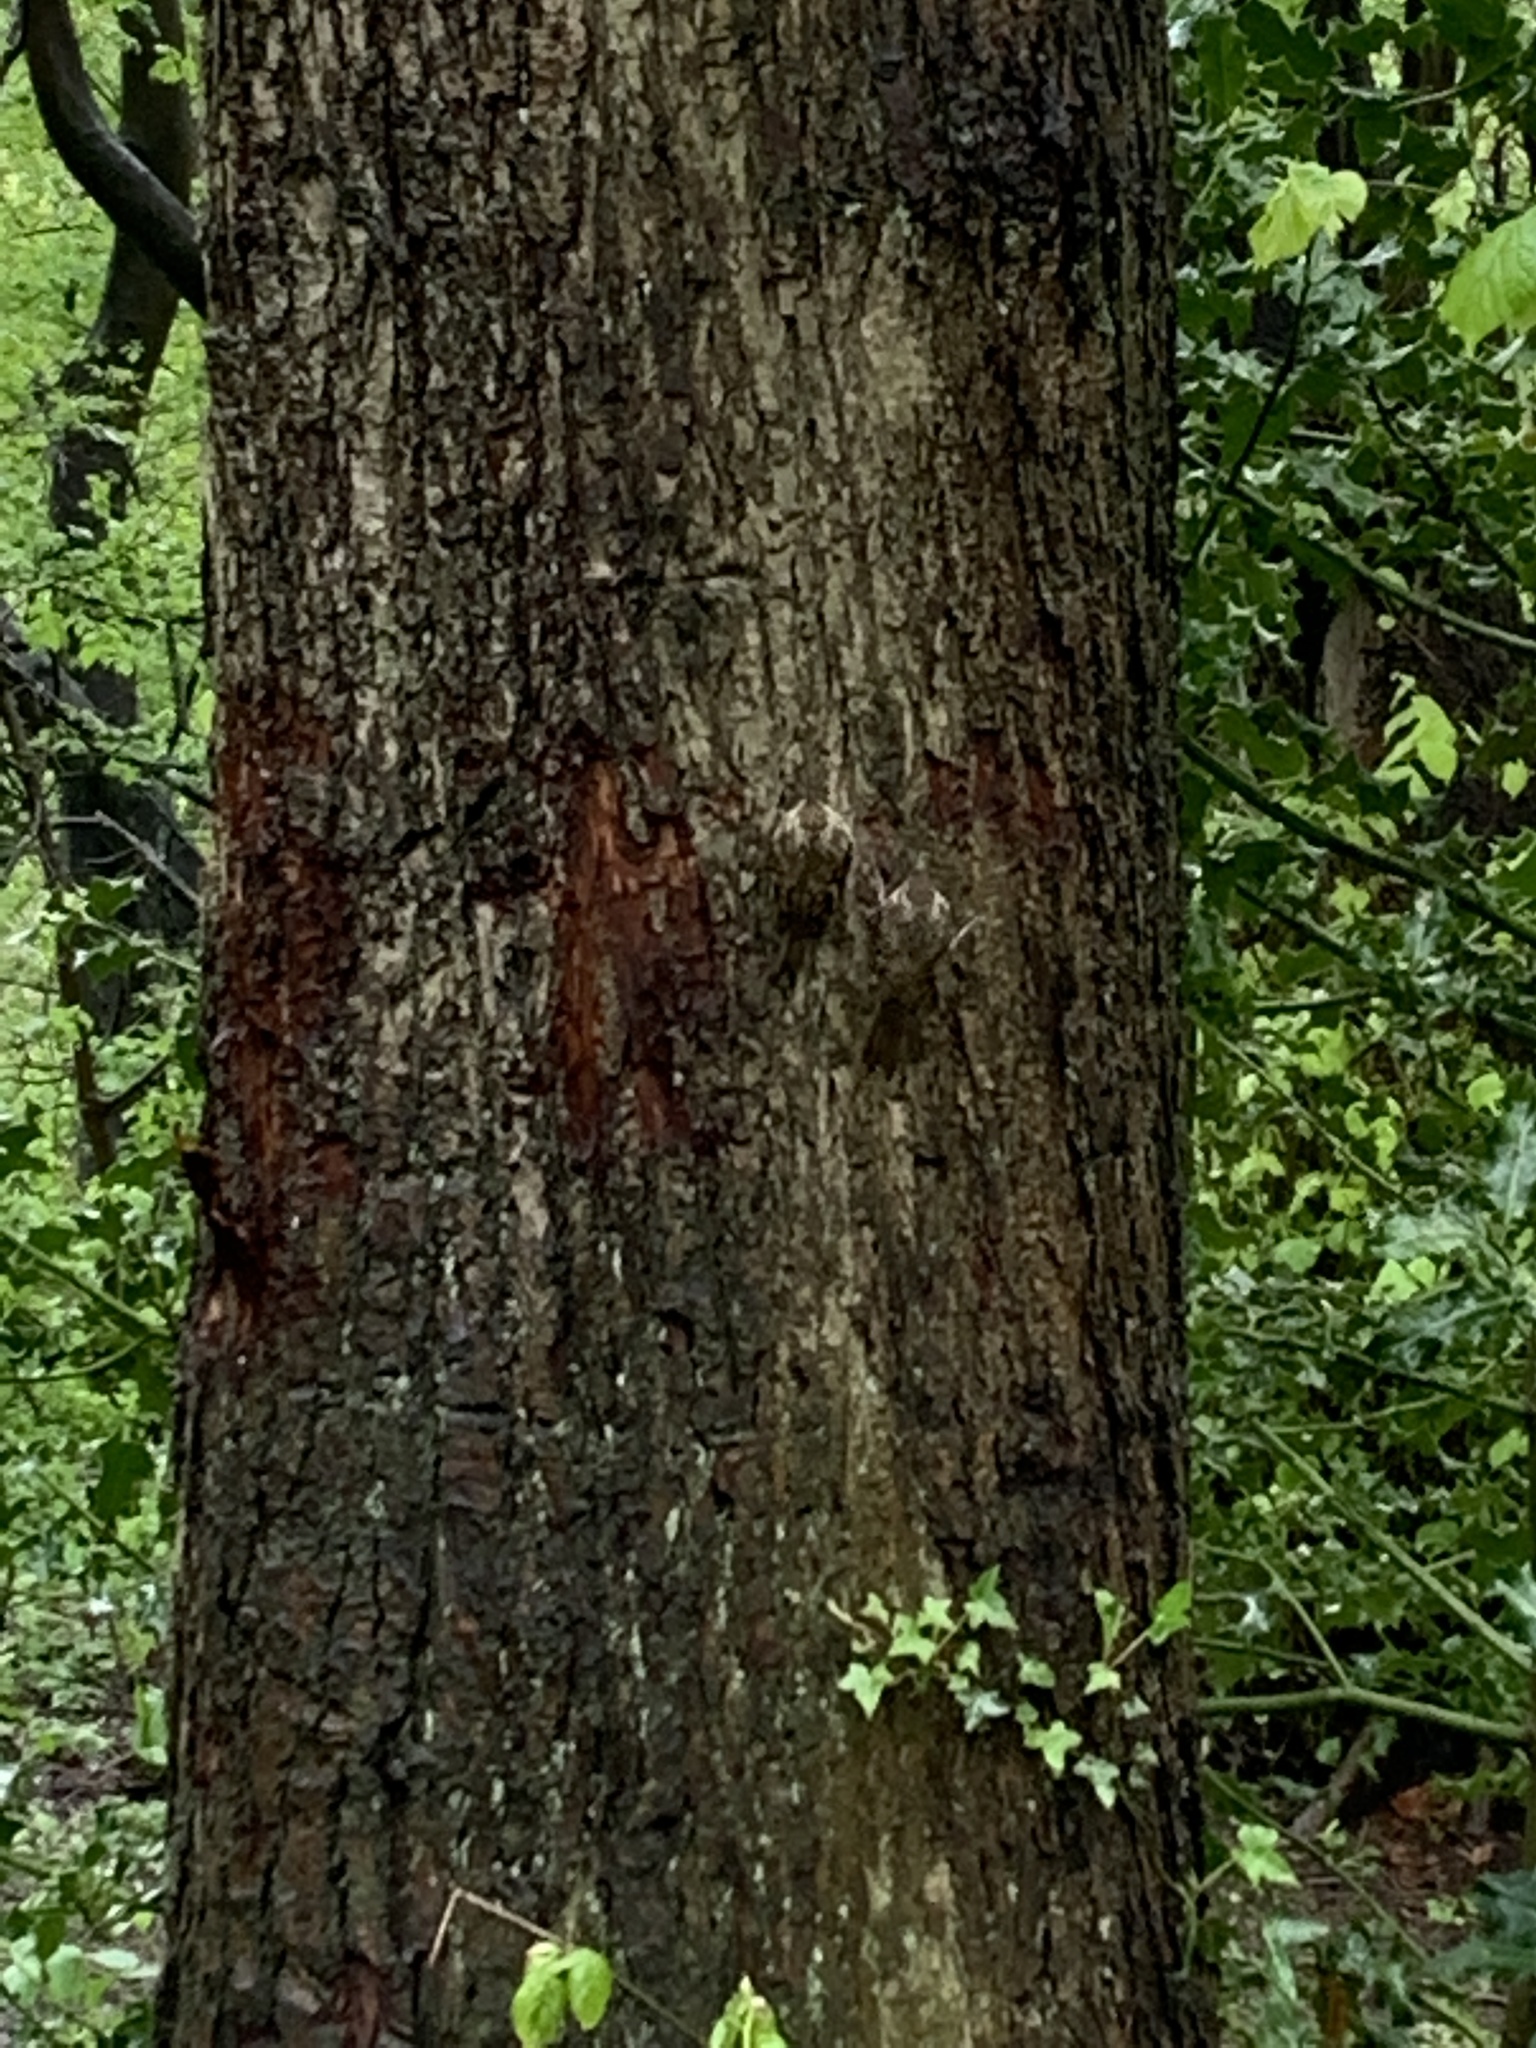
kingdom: Animalia
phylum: Chordata
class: Aves
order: Passeriformes
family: Certhiidae
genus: Certhia
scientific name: Certhia familiaris
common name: Eurasian treecreeper
